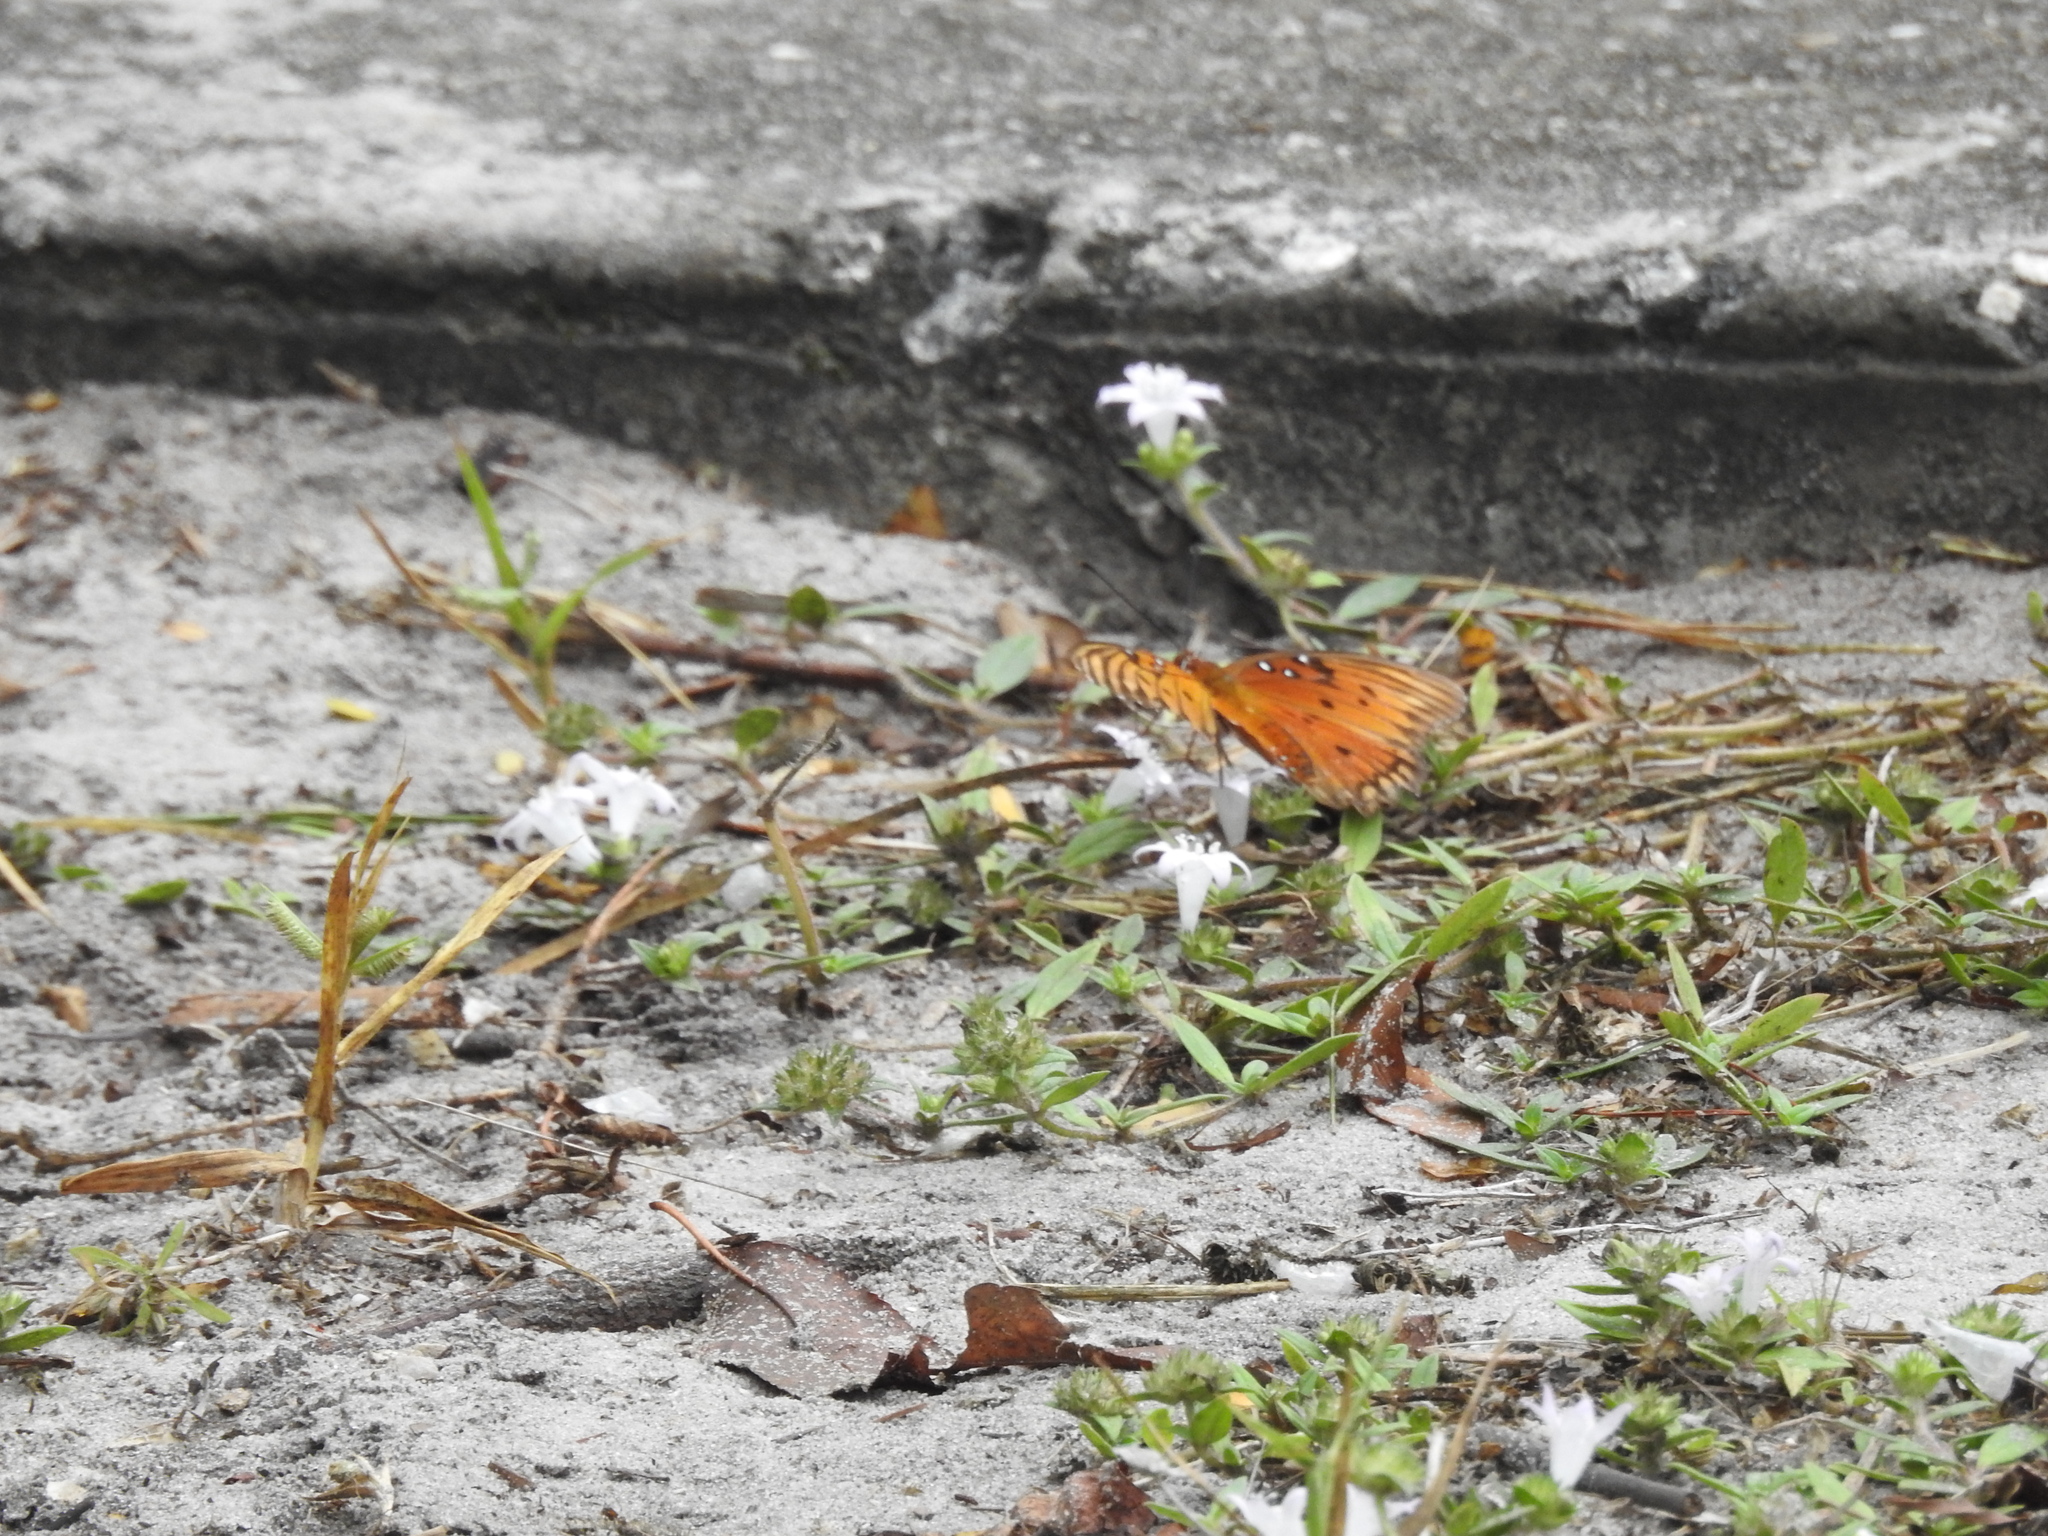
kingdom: Animalia
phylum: Arthropoda
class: Insecta
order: Lepidoptera
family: Nymphalidae
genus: Dione
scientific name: Dione vanillae
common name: Gulf fritillary
